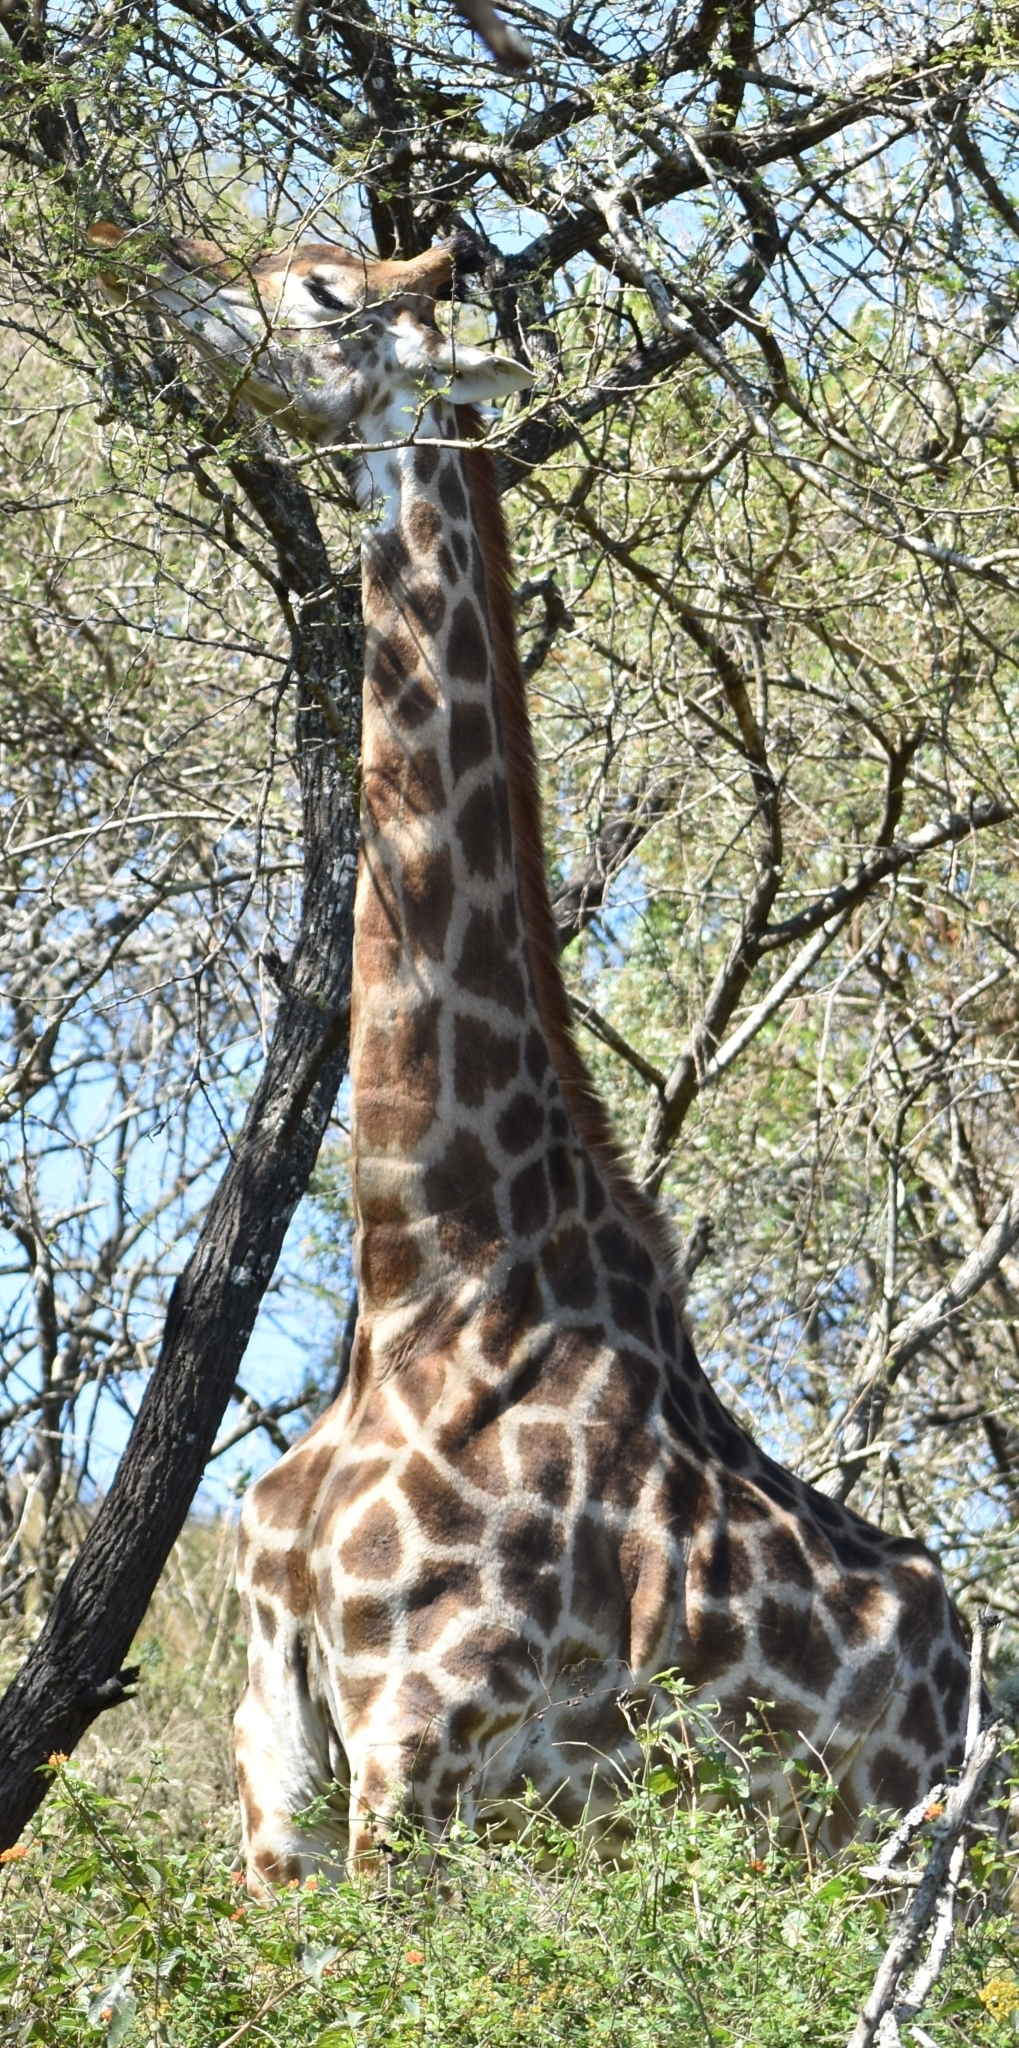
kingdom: Animalia
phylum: Chordata
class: Mammalia
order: Artiodactyla
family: Giraffidae
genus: Giraffa
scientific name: Giraffa giraffa
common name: Southern giraffe
